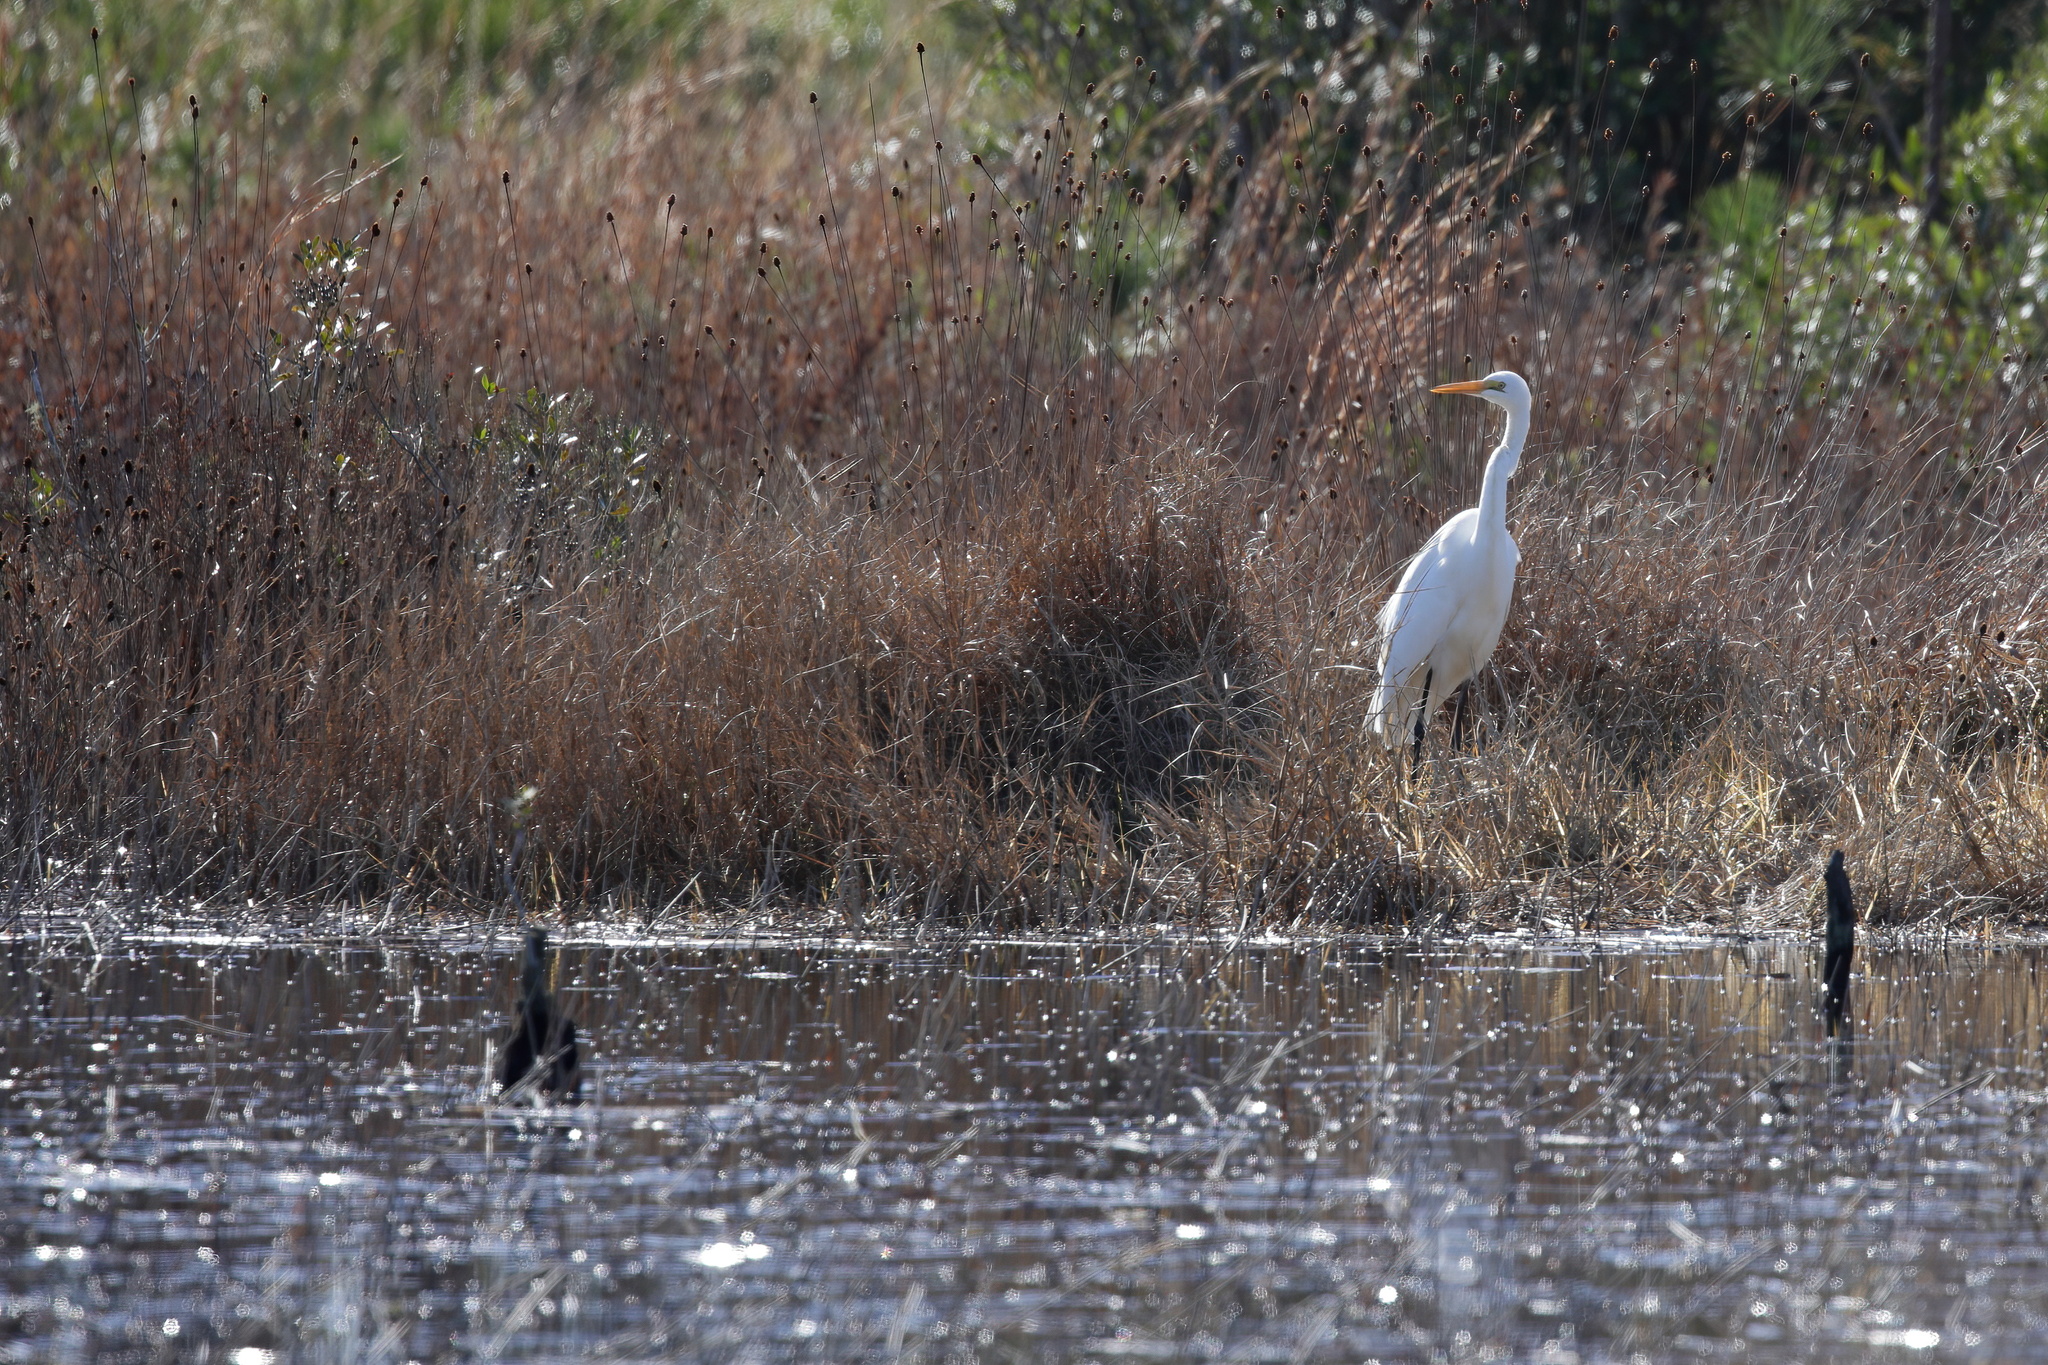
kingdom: Animalia
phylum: Chordata
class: Aves
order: Pelecaniformes
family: Ardeidae
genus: Ardea
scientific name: Ardea alba
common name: Great egret
